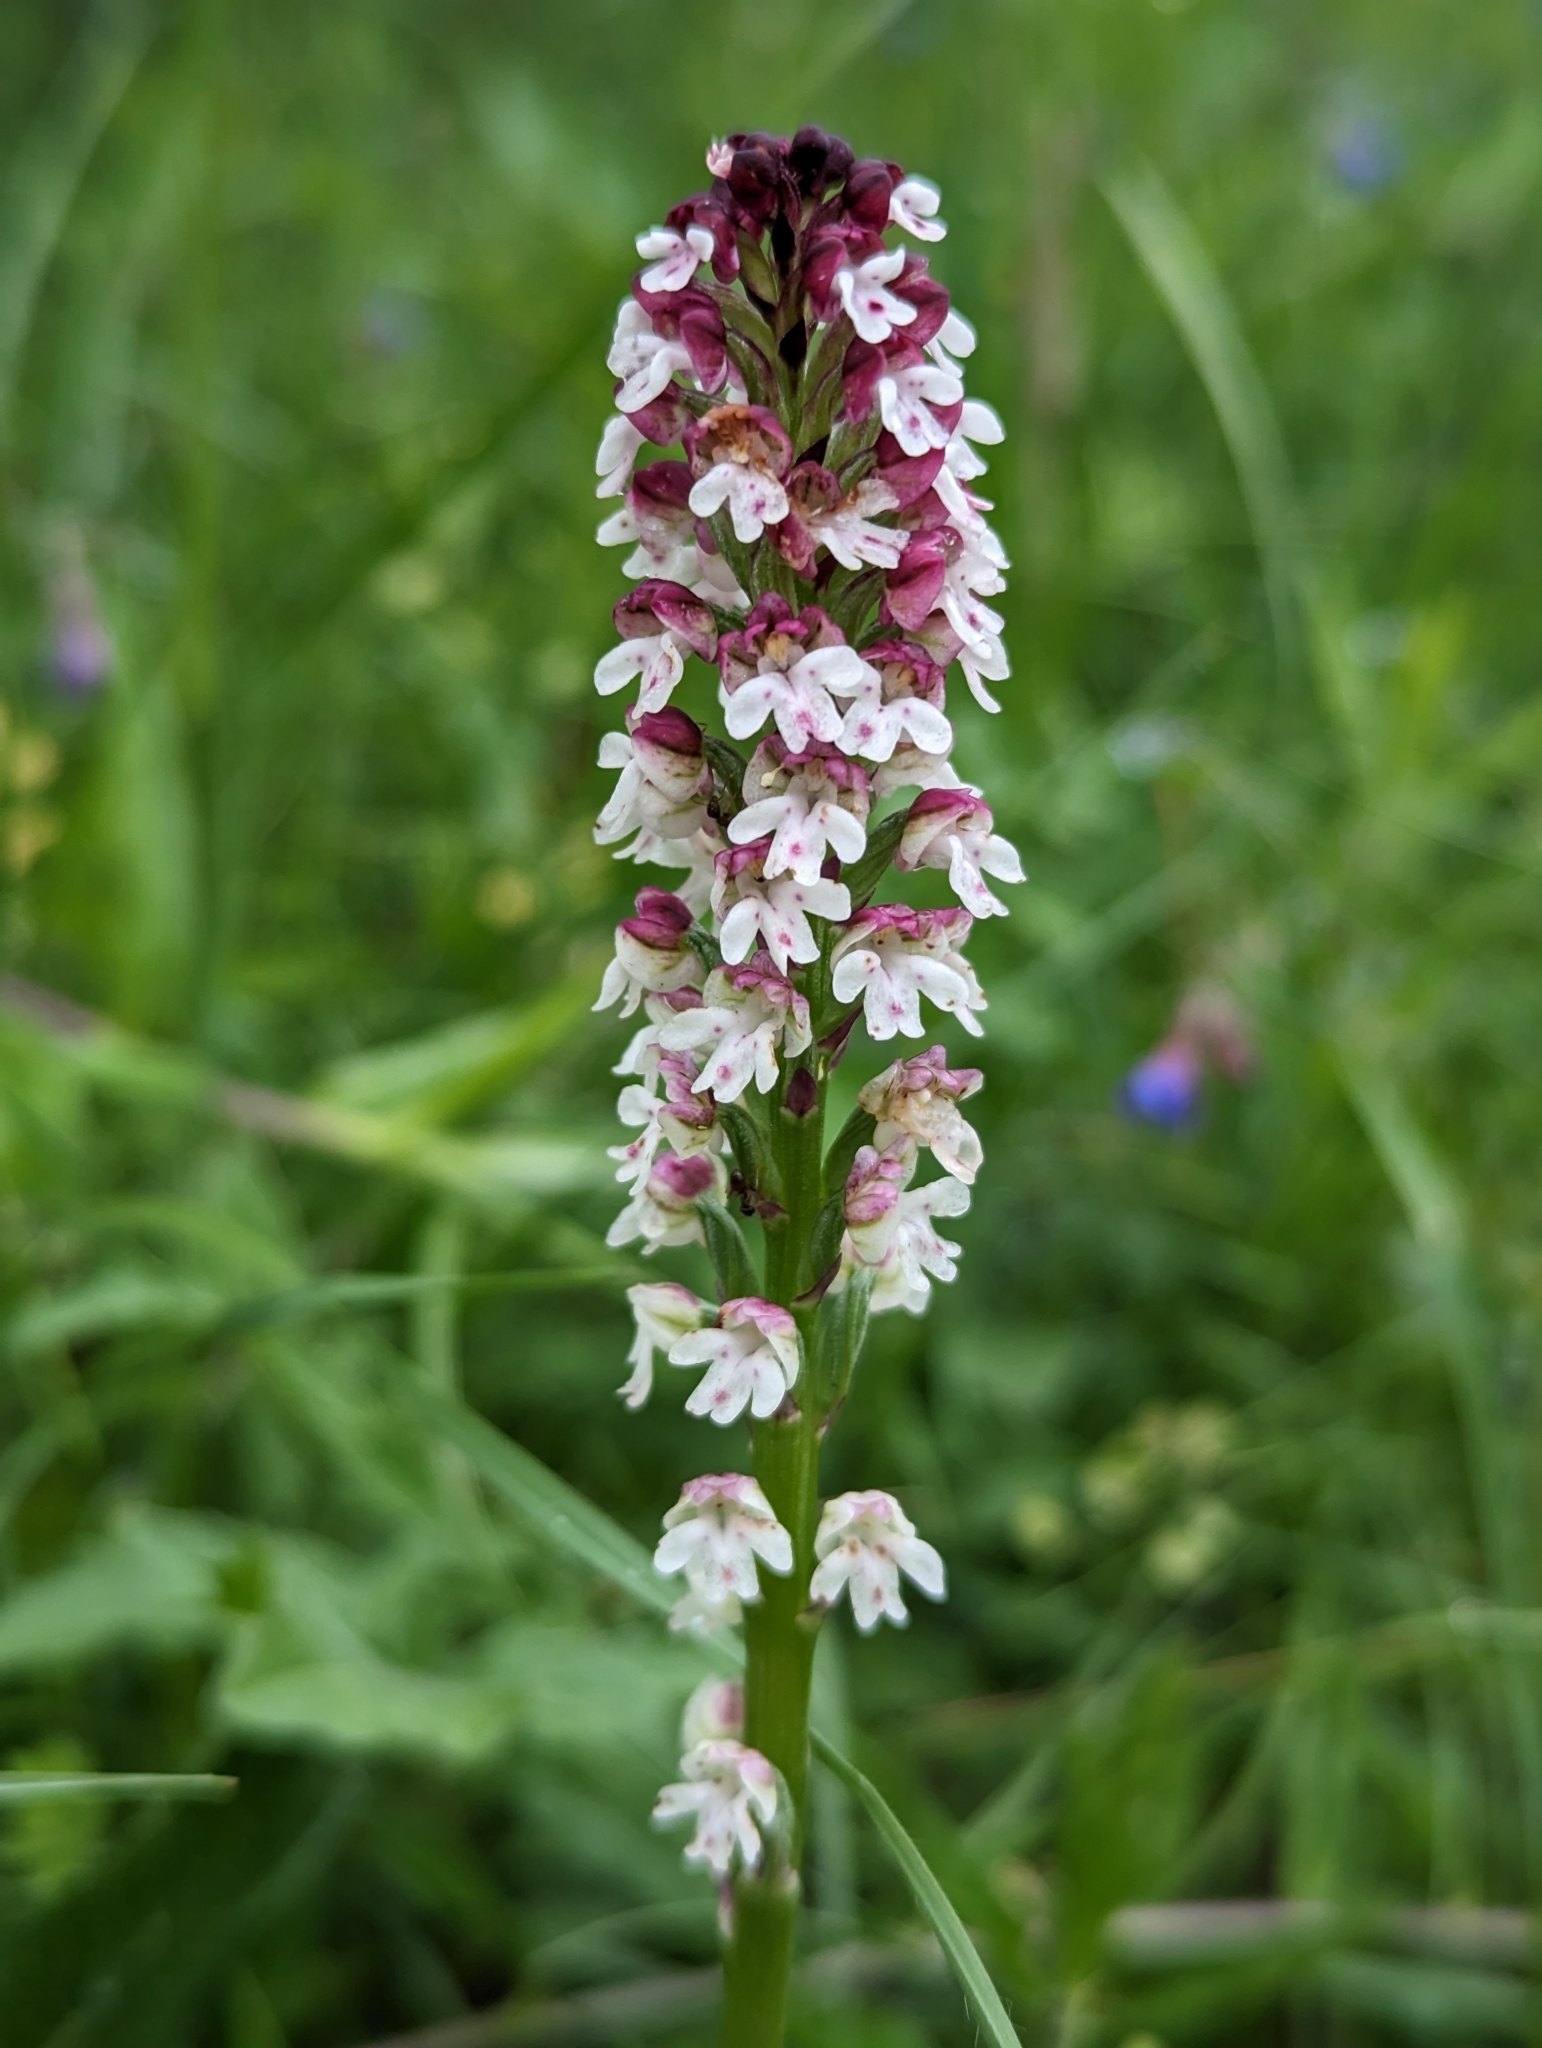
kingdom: Plantae
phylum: Tracheophyta
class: Liliopsida
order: Asparagales
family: Orchidaceae
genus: Neotinea
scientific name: Neotinea ustulata
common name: Burnt orchid
